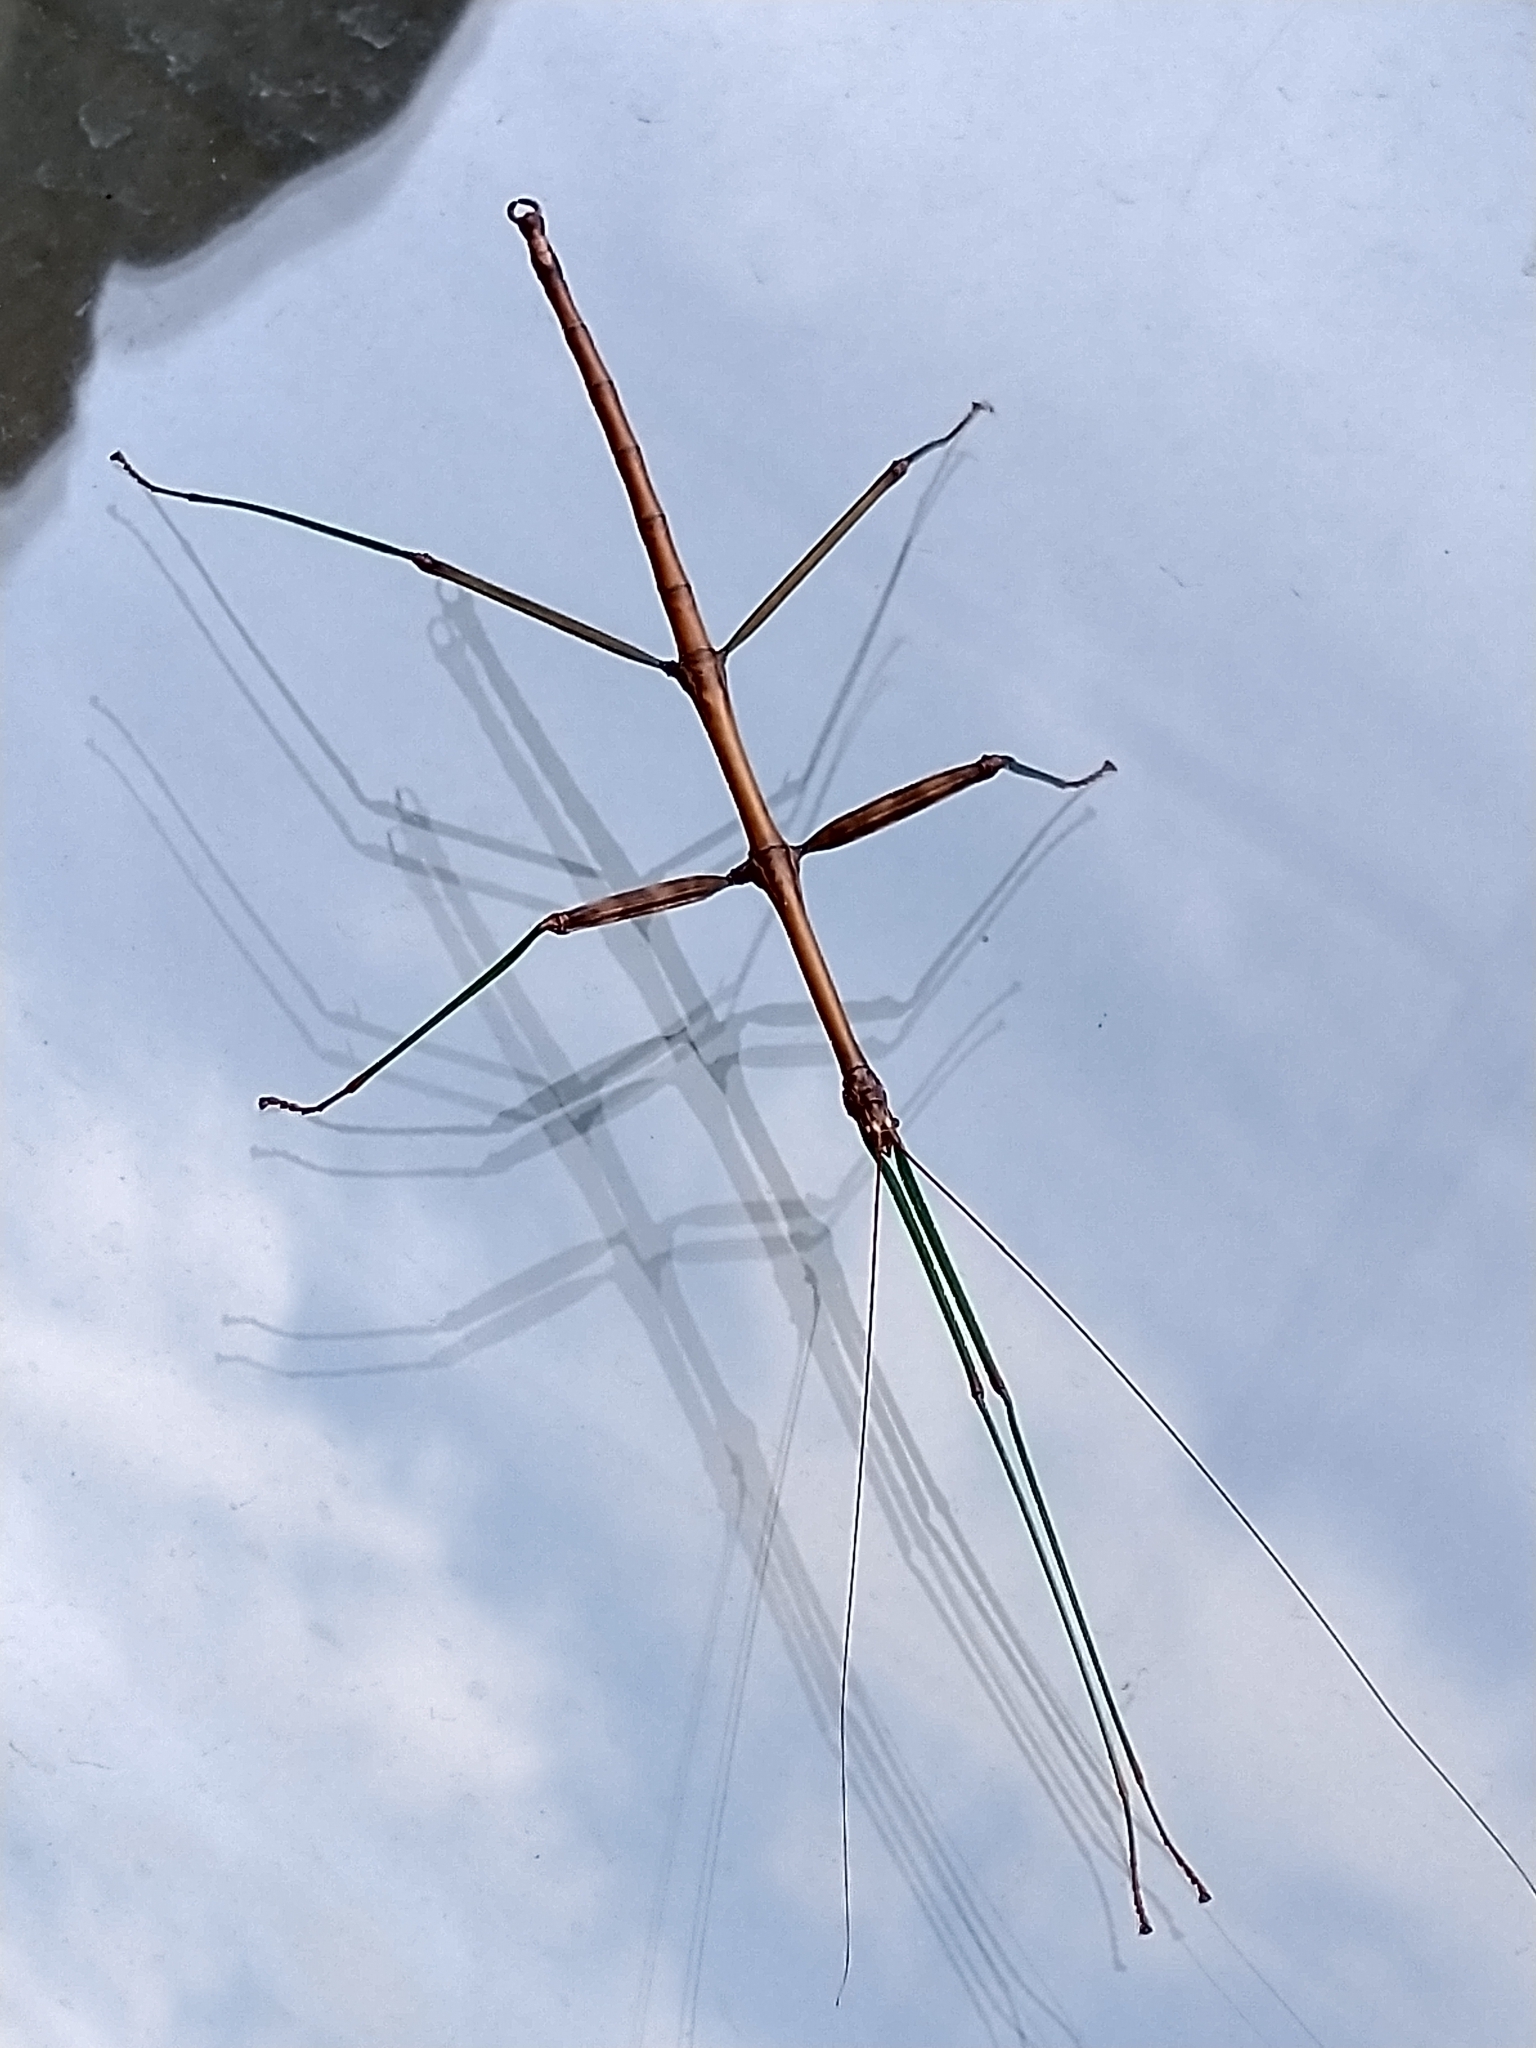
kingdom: Animalia
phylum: Arthropoda
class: Insecta
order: Phasmida
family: Diapheromeridae
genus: Diapheromera
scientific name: Diapheromera femorata
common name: Common american walkingstick
